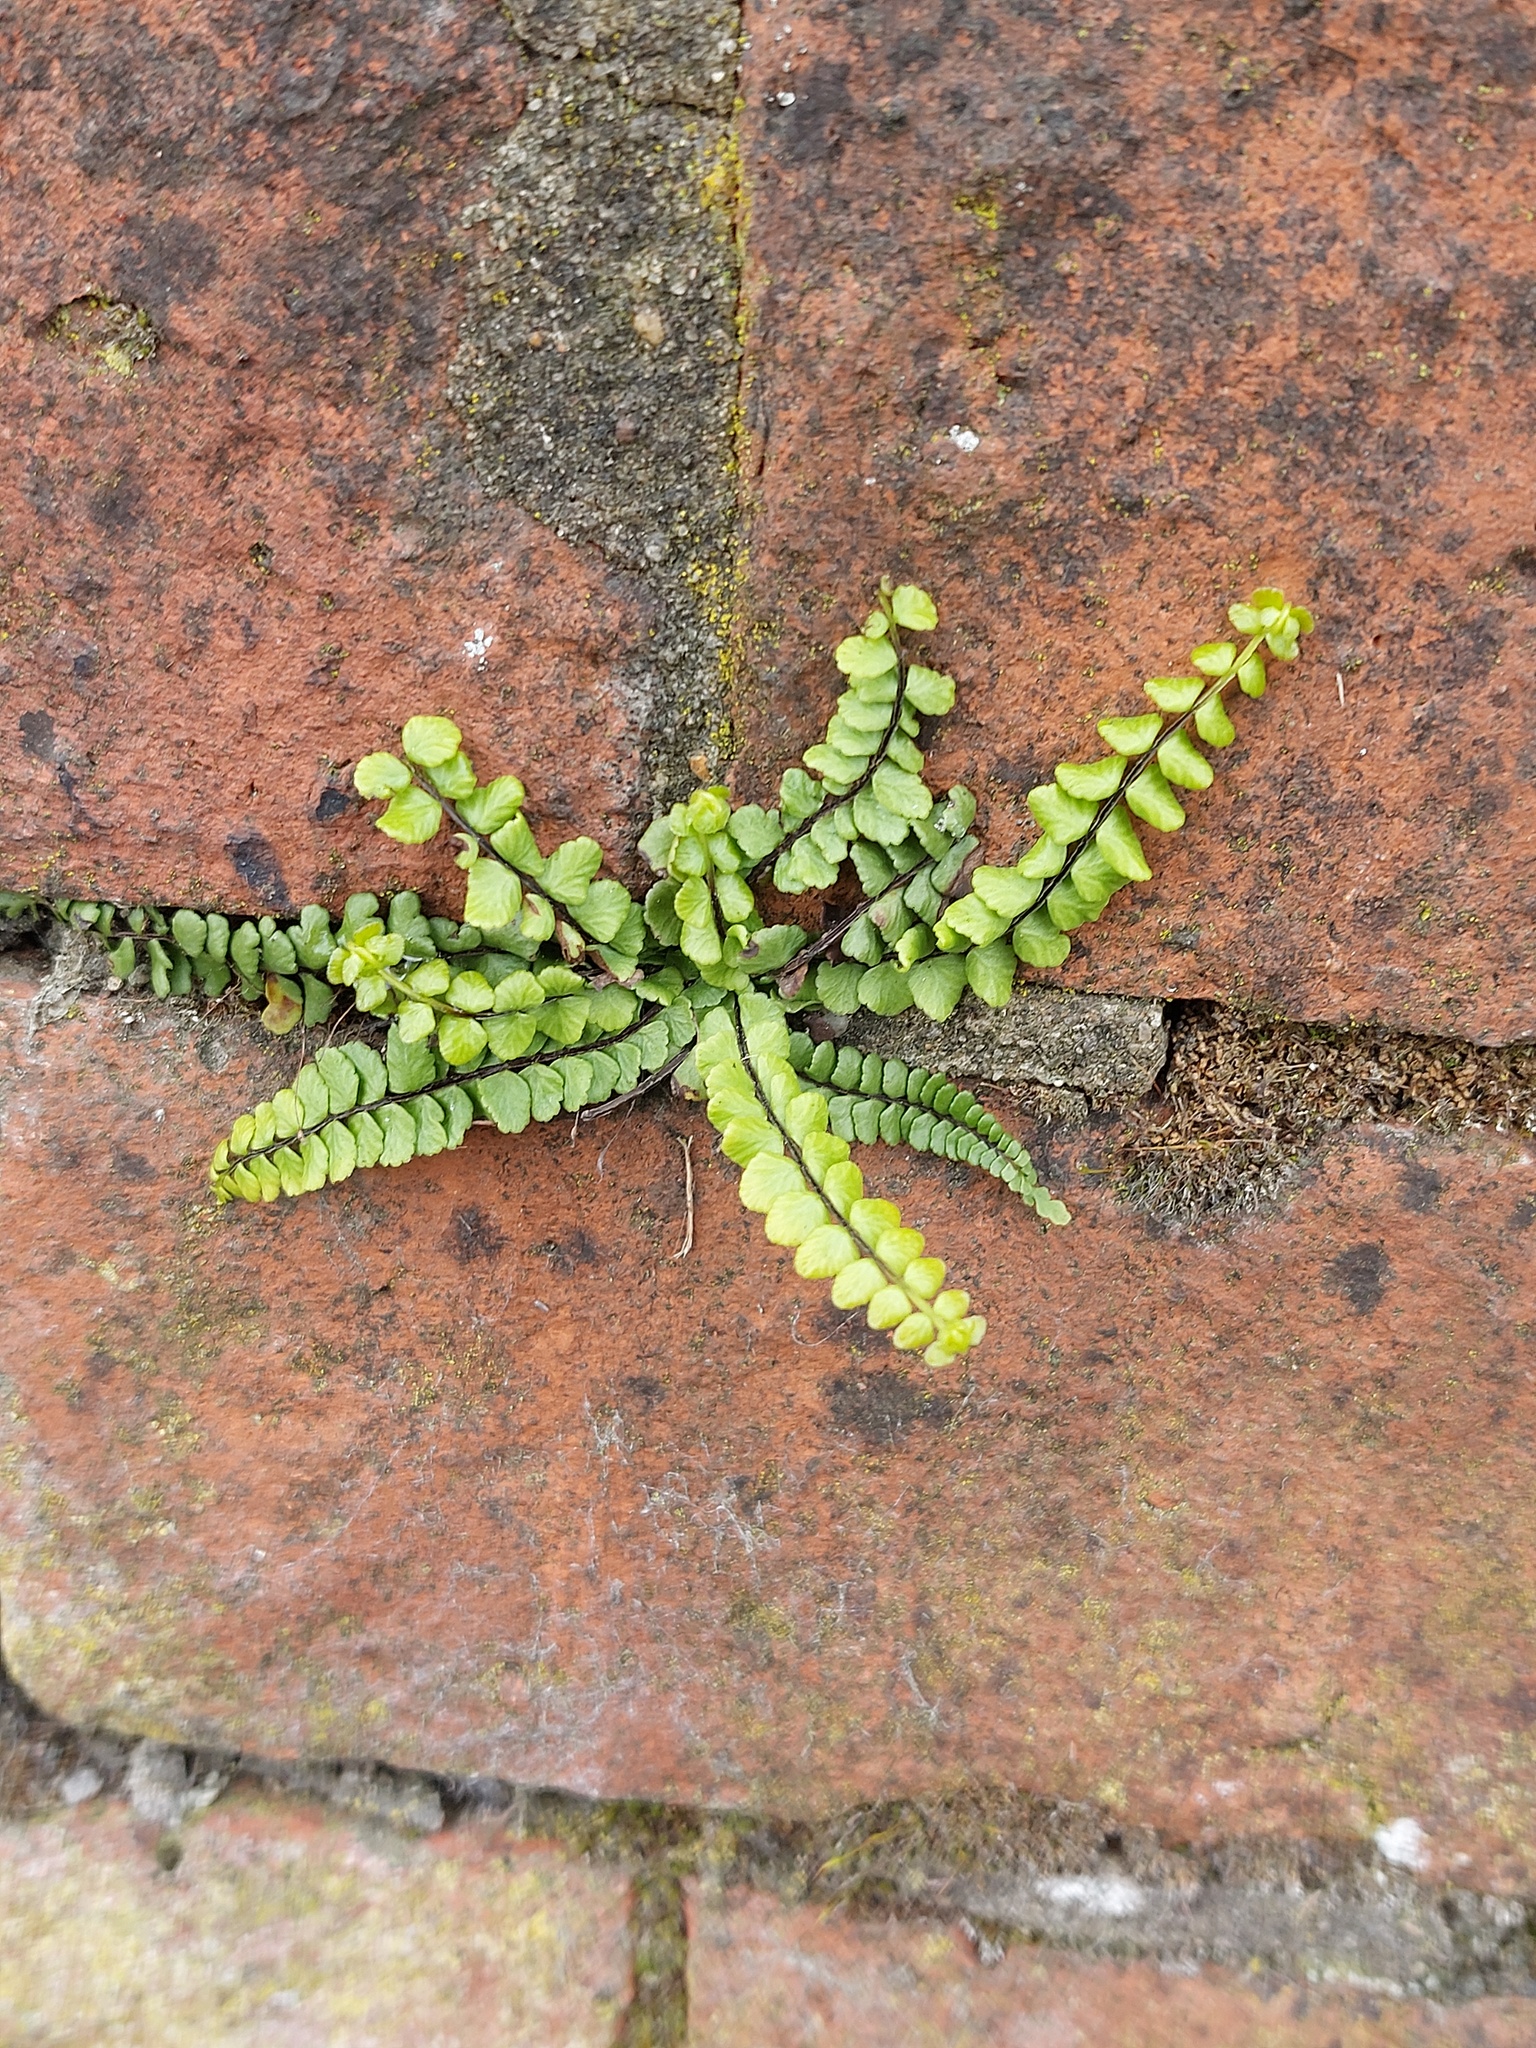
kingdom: Plantae
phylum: Tracheophyta
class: Polypodiopsida
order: Polypodiales
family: Aspleniaceae
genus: Asplenium
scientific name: Asplenium trichomanes
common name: Maidenhair spleenwort
